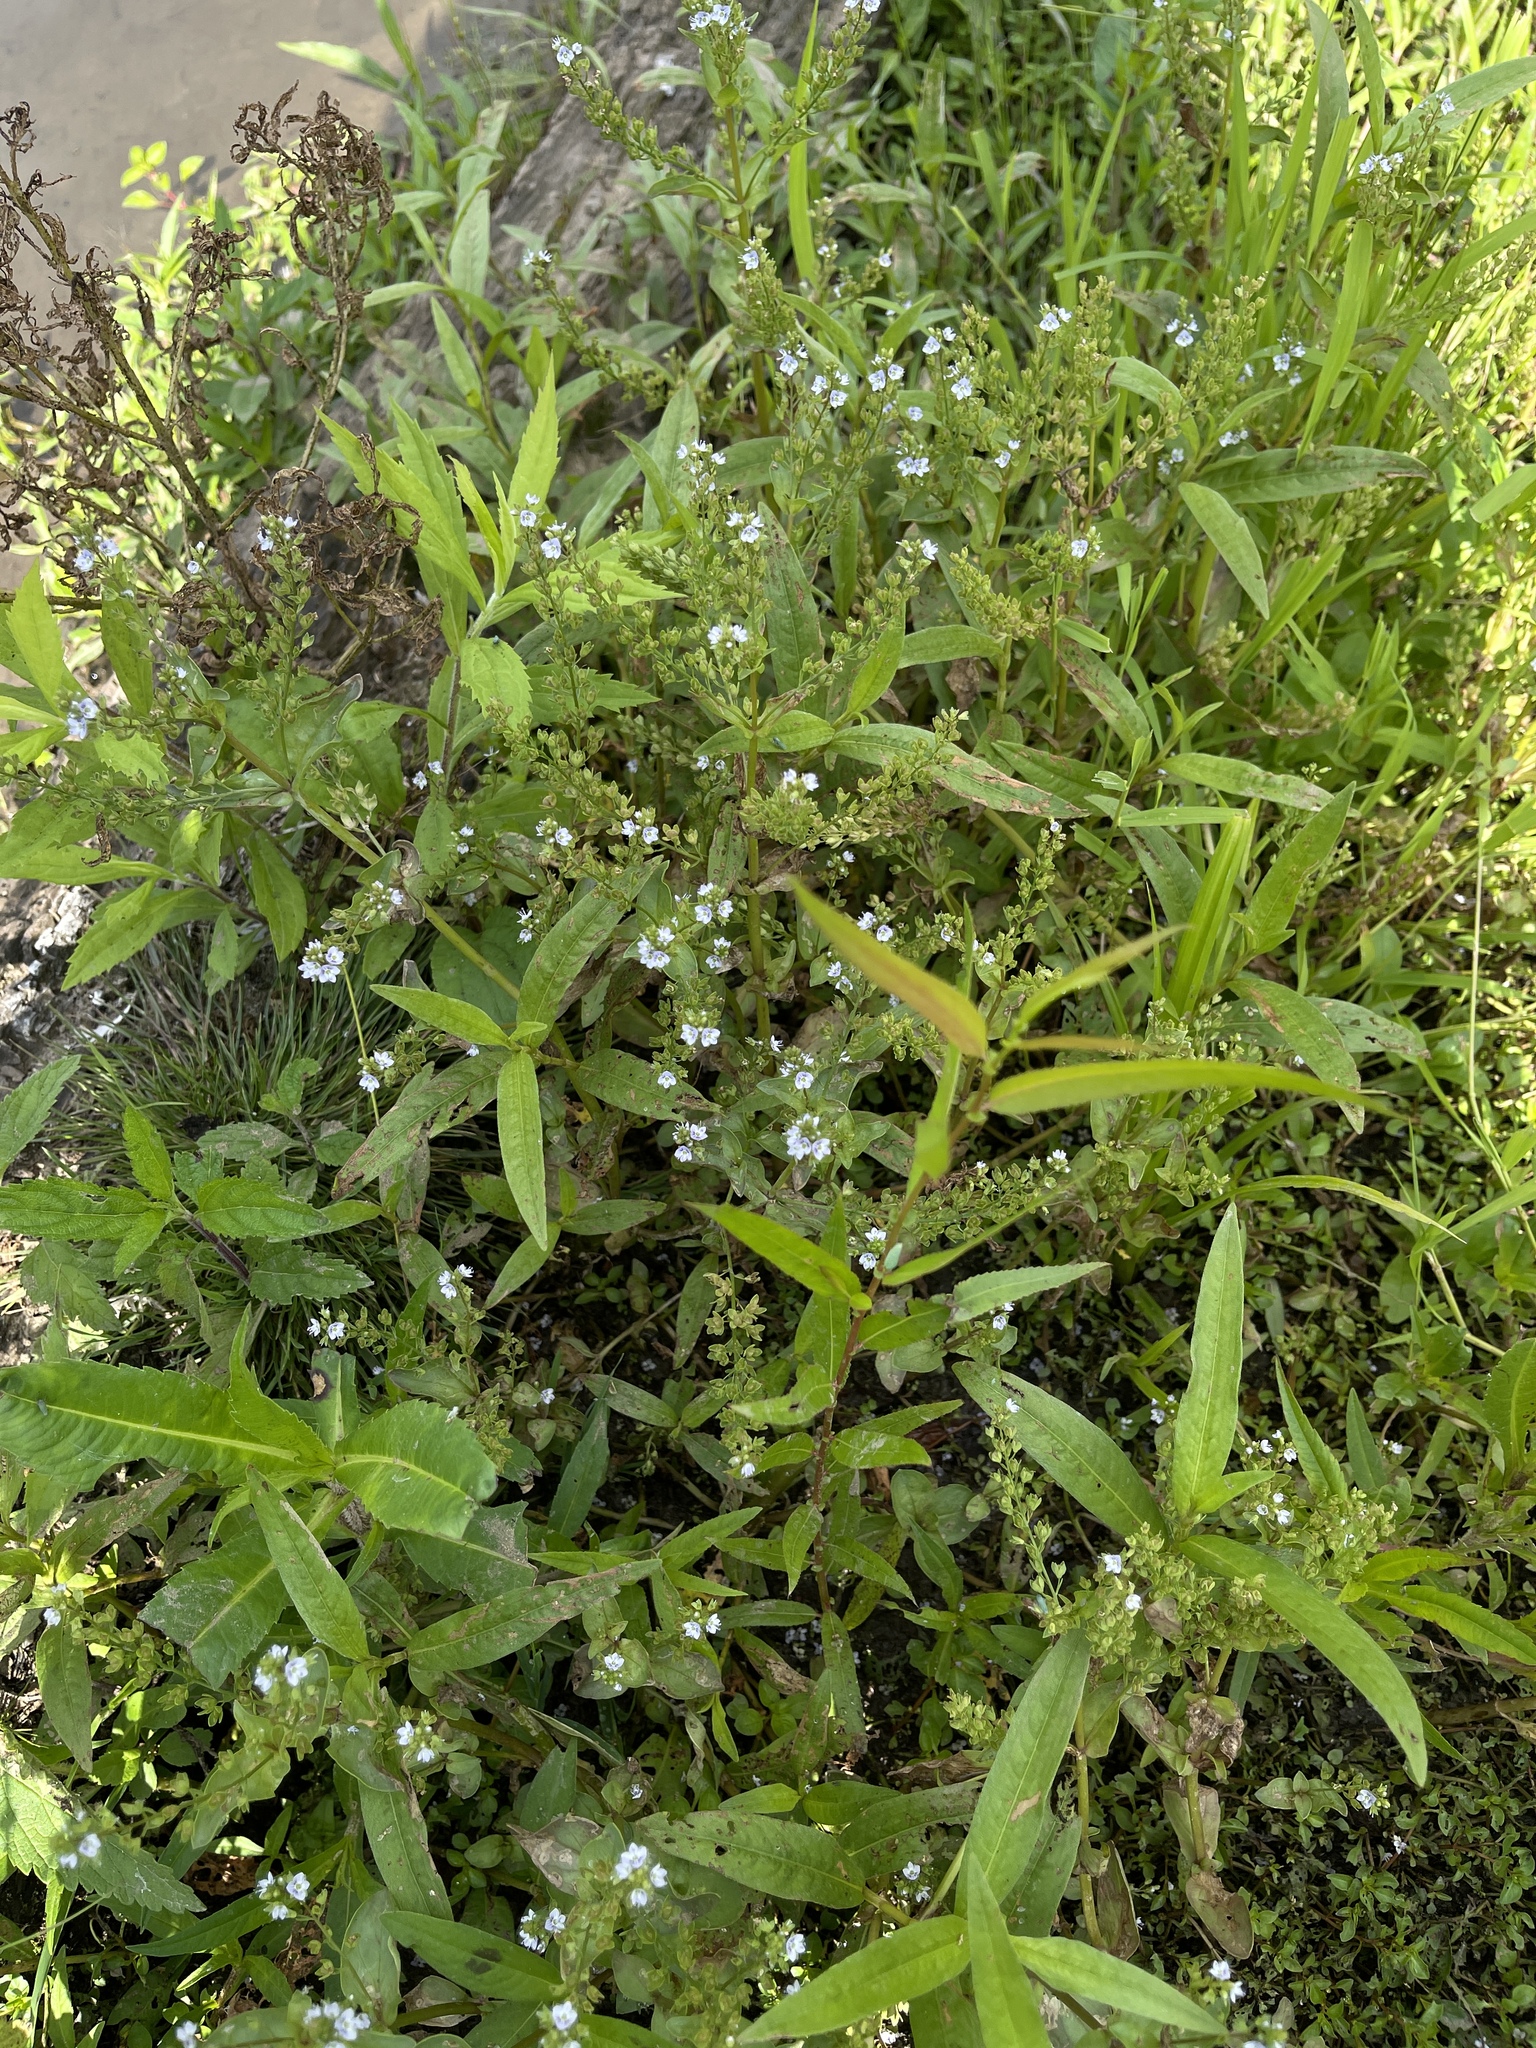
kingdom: Plantae
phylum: Tracheophyta
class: Magnoliopsida
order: Lamiales
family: Plantaginaceae
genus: Veronica
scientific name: Veronica anagallis-aquatica
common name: Water speedwell
